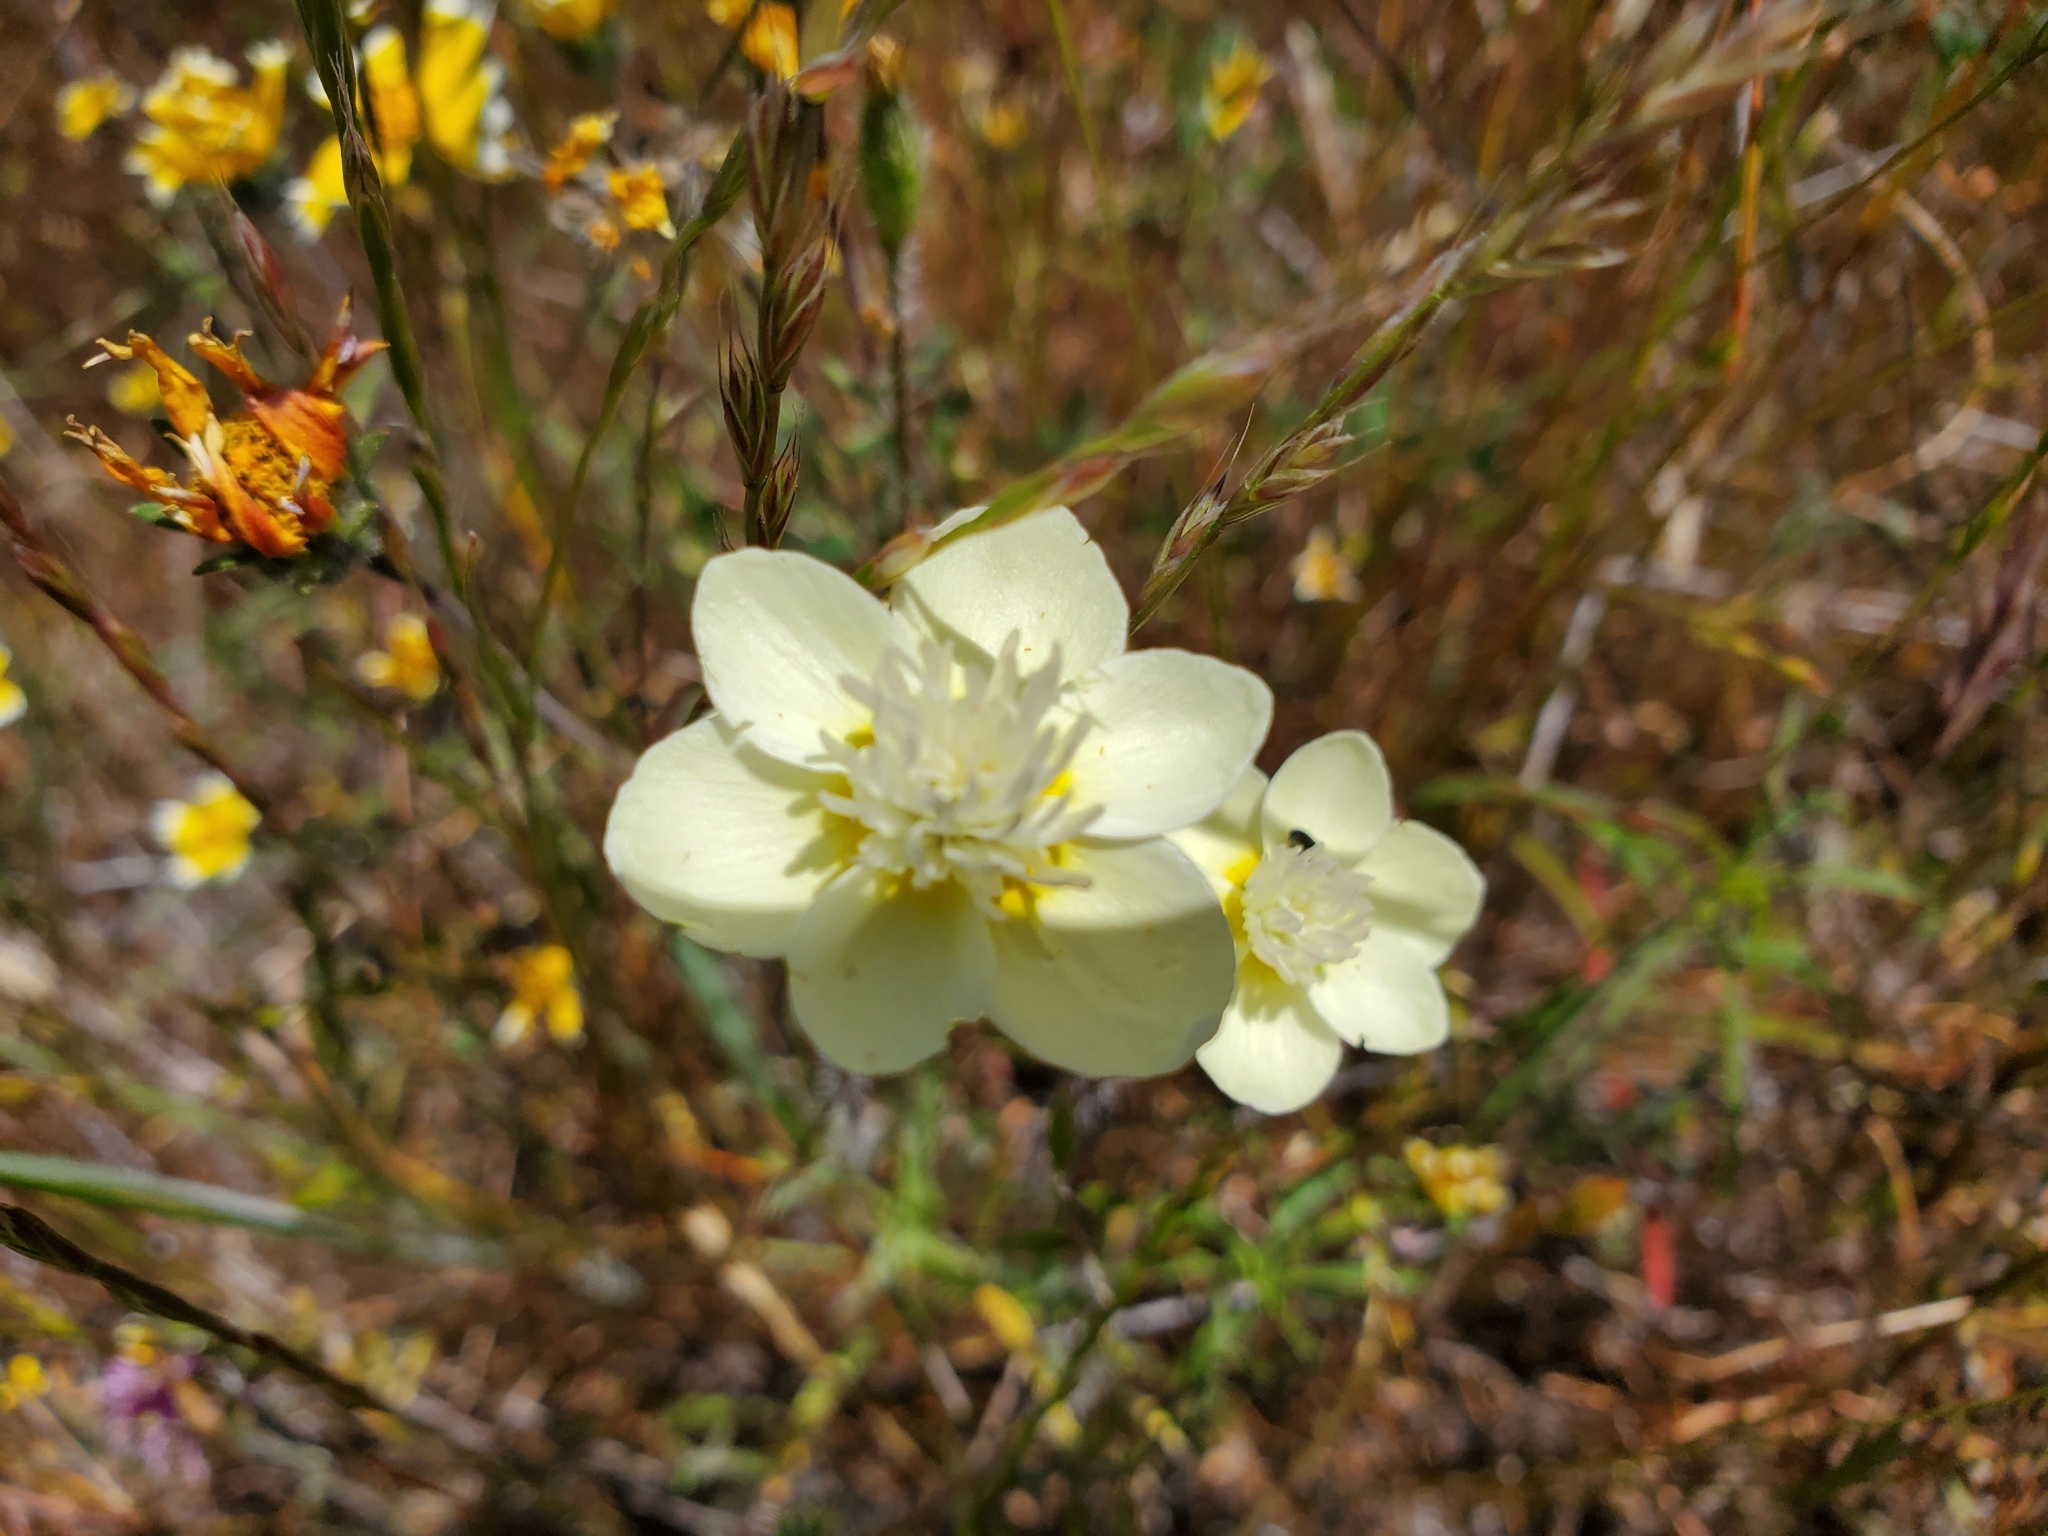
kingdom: Plantae
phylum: Tracheophyta
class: Magnoliopsida
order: Ranunculales
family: Papaveraceae
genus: Platystemon
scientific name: Platystemon californicus
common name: Cream-cups
